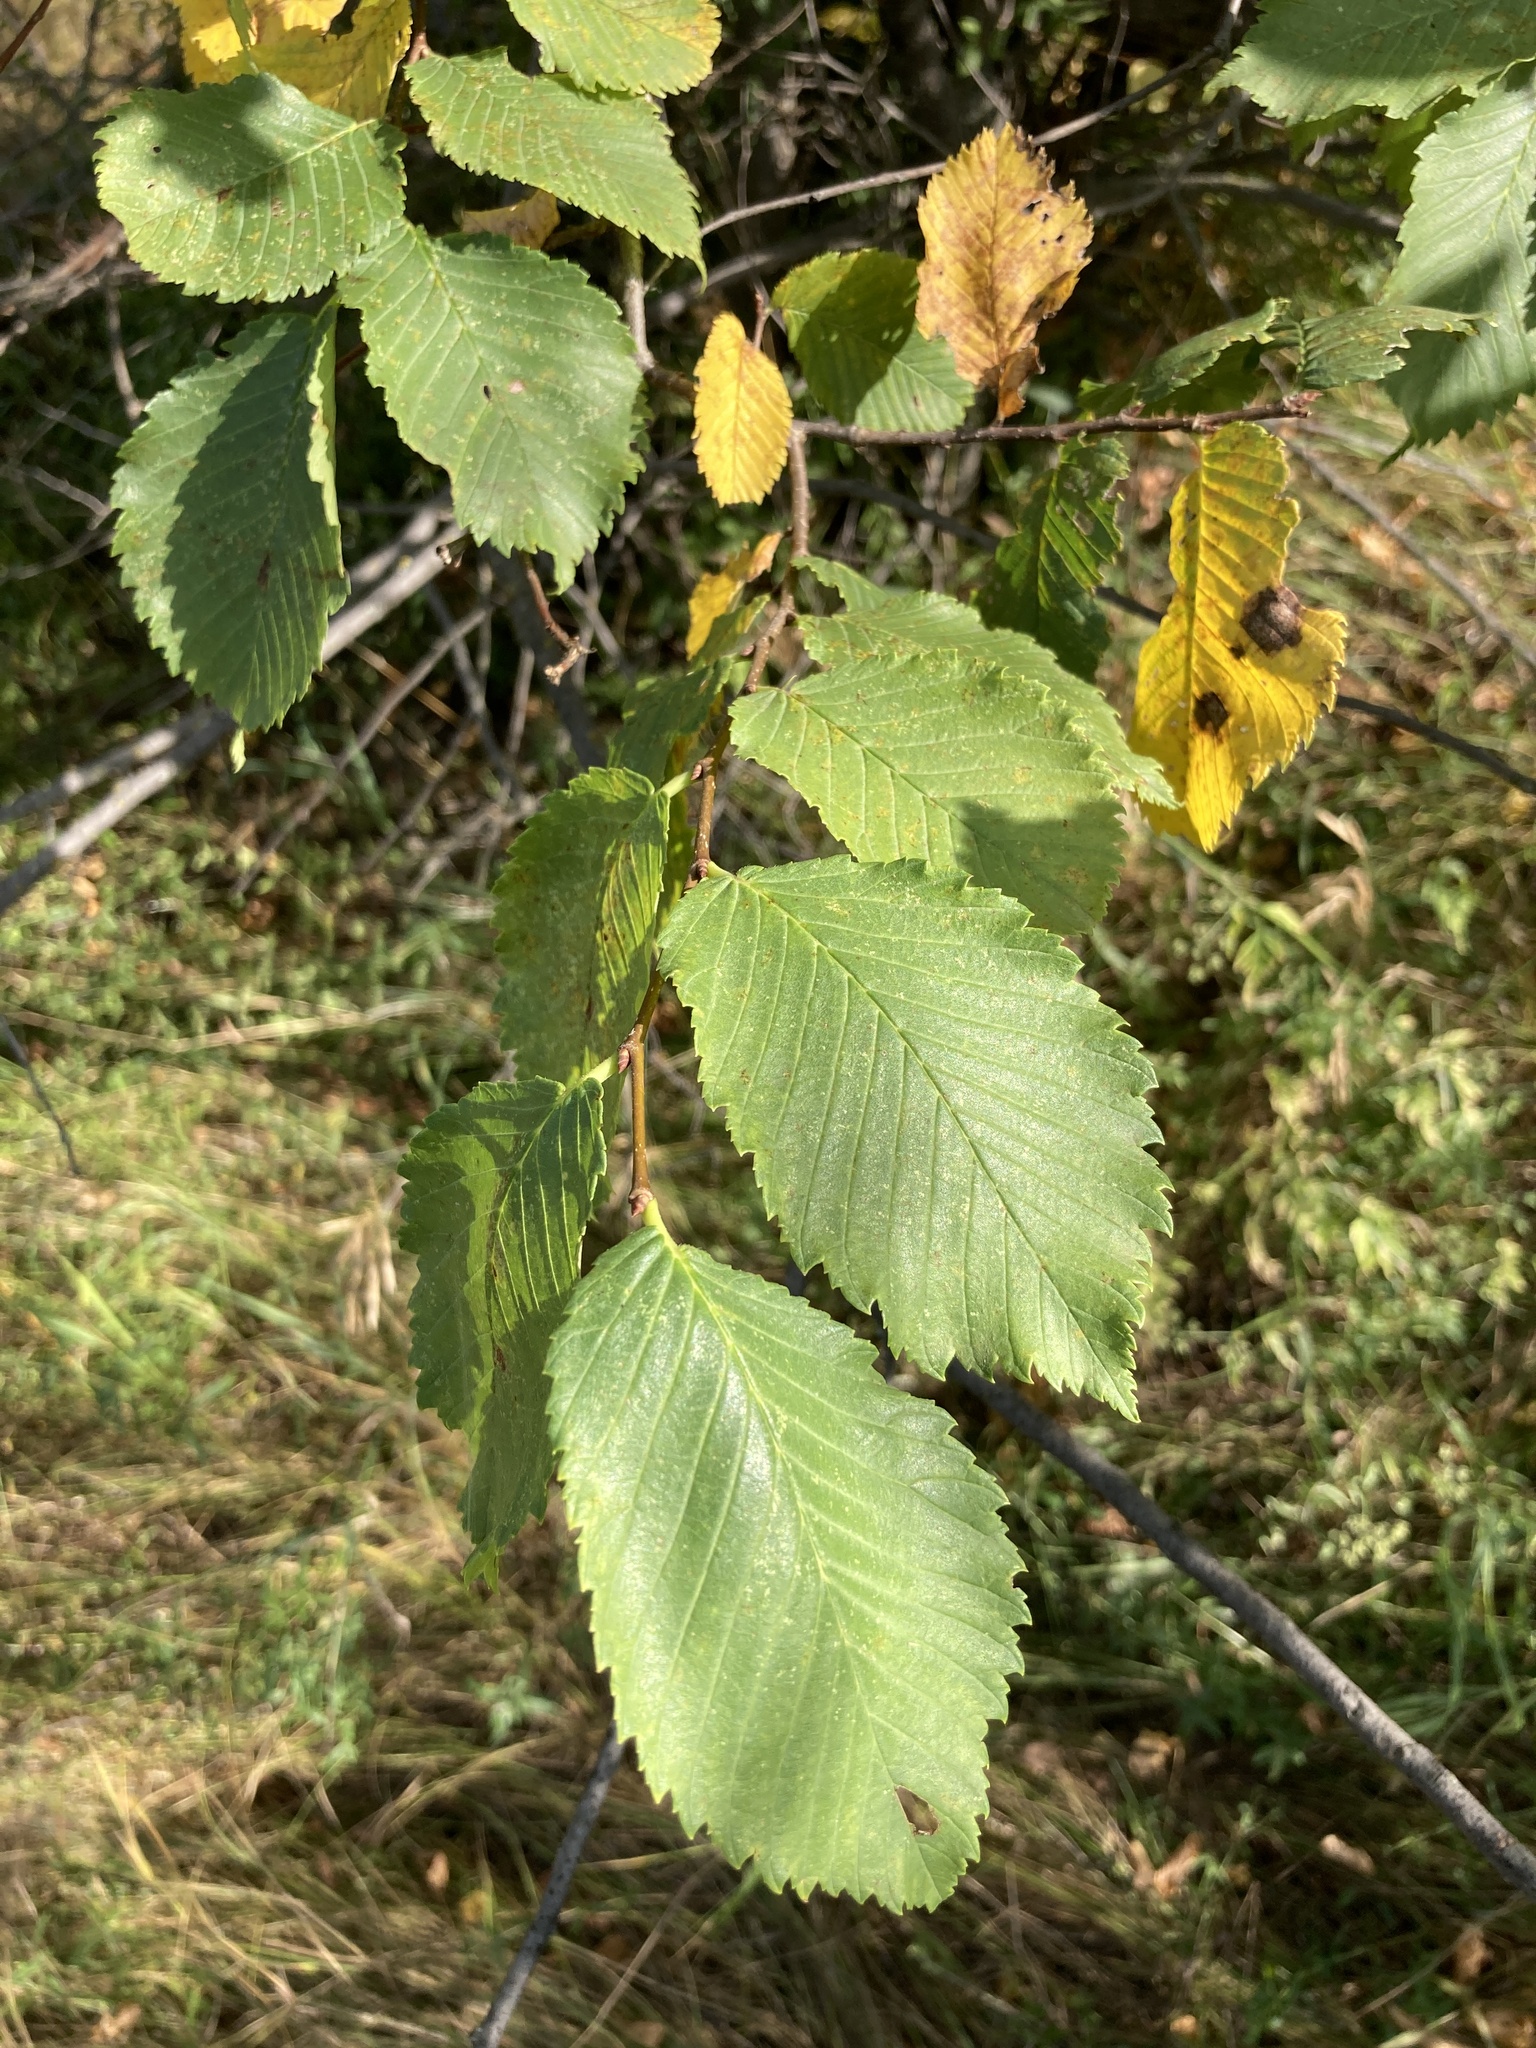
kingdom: Plantae
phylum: Tracheophyta
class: Magnoliopsida
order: Rosales
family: Ulmaceae
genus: Ulmus
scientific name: Ulmus laevis
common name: European white-elm
